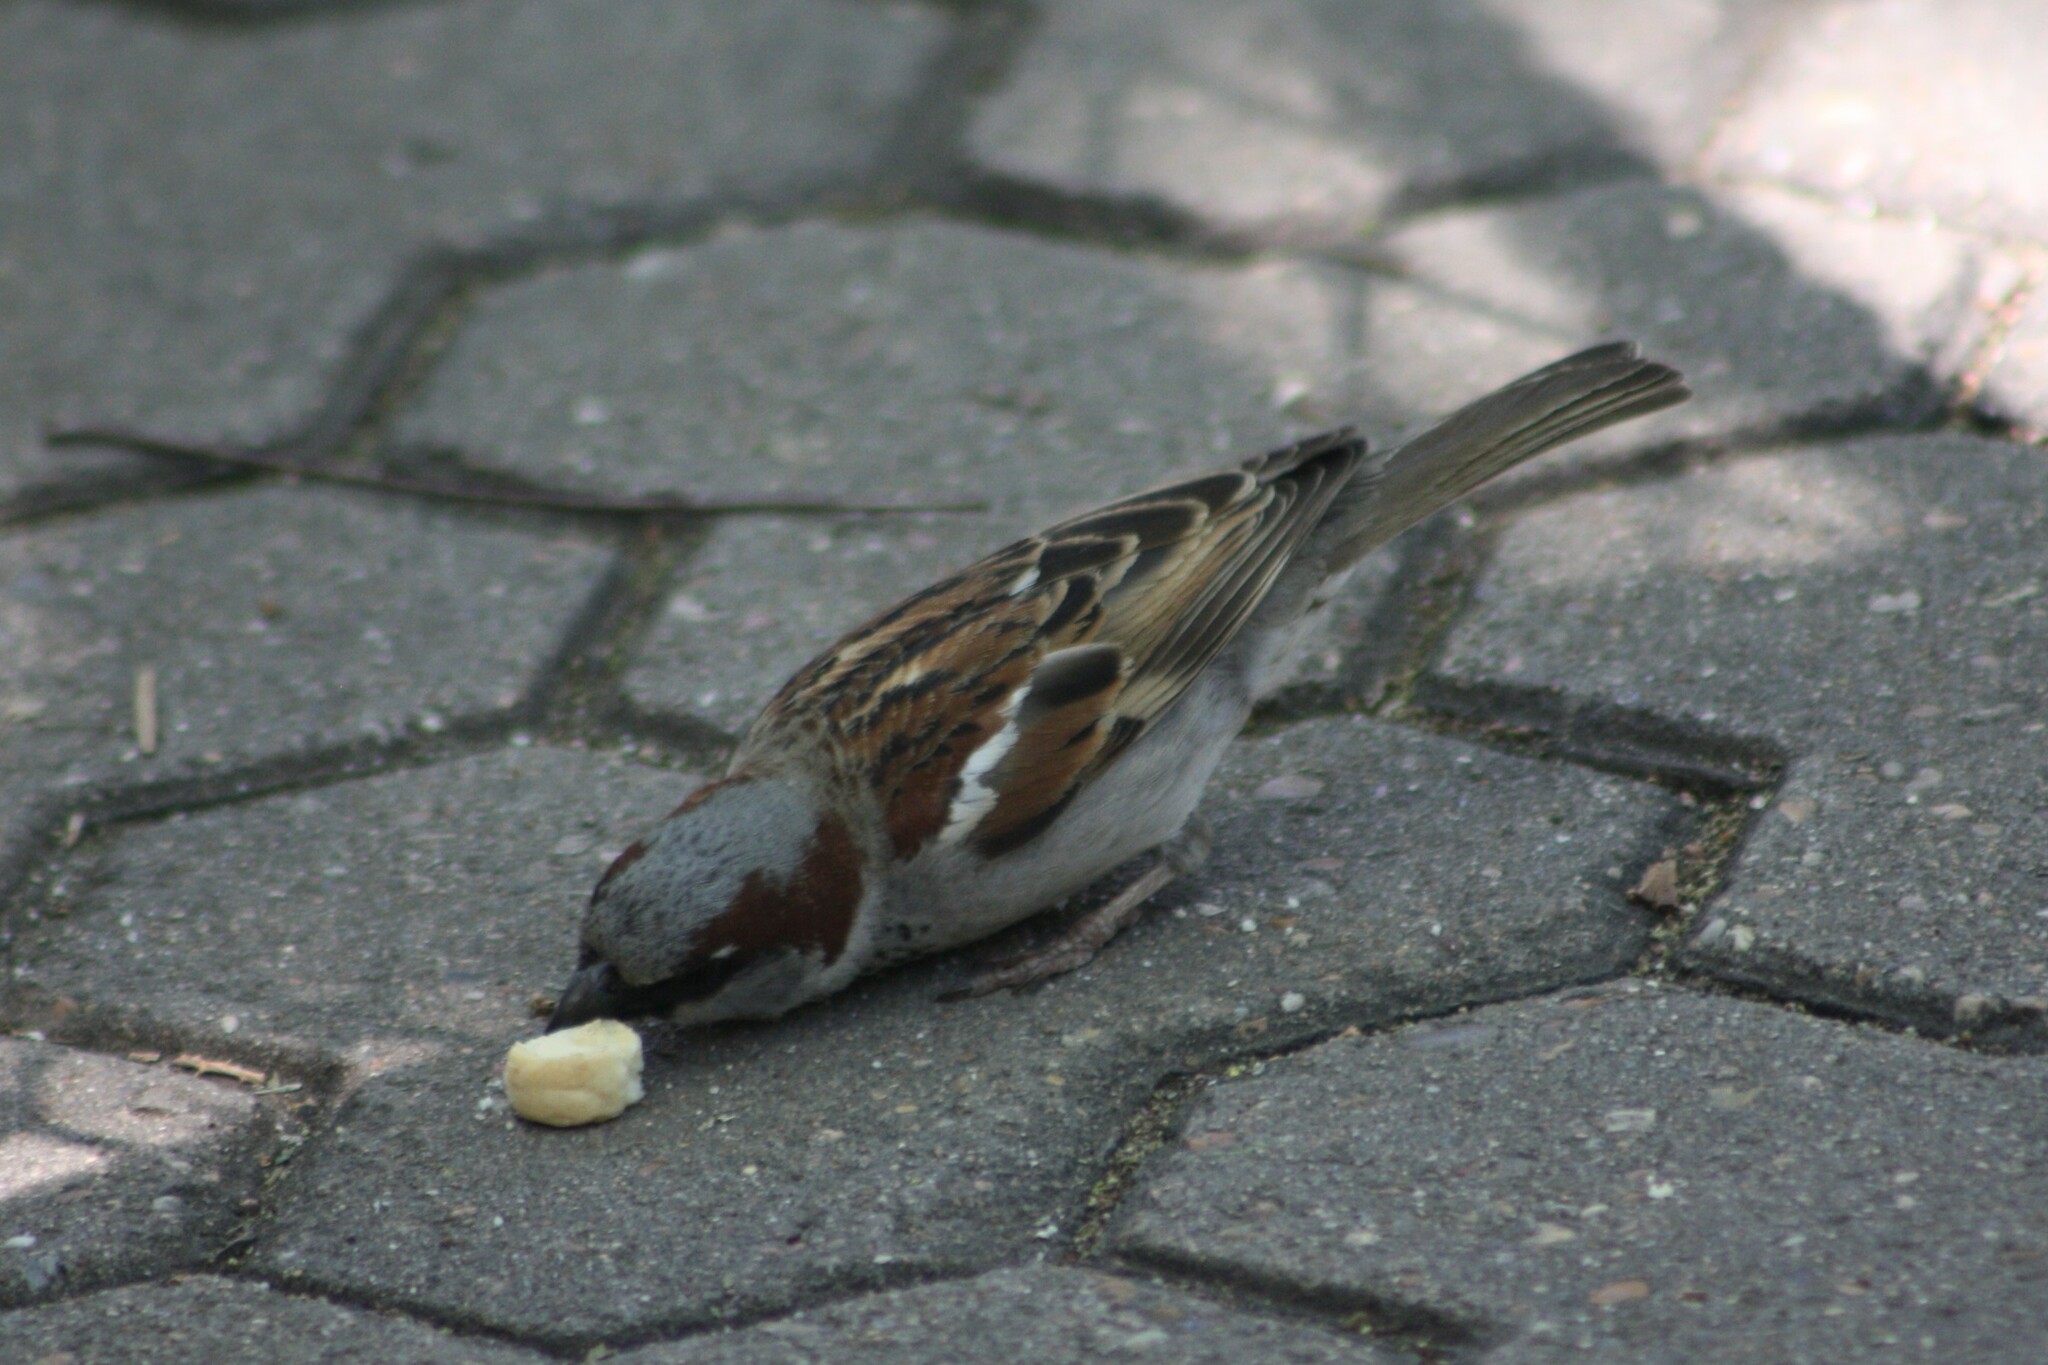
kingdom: Animalia
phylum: Chordata
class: Aves
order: Passeriformes
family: Passeridae
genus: Passer
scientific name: Passer domesticus
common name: House sparrow
